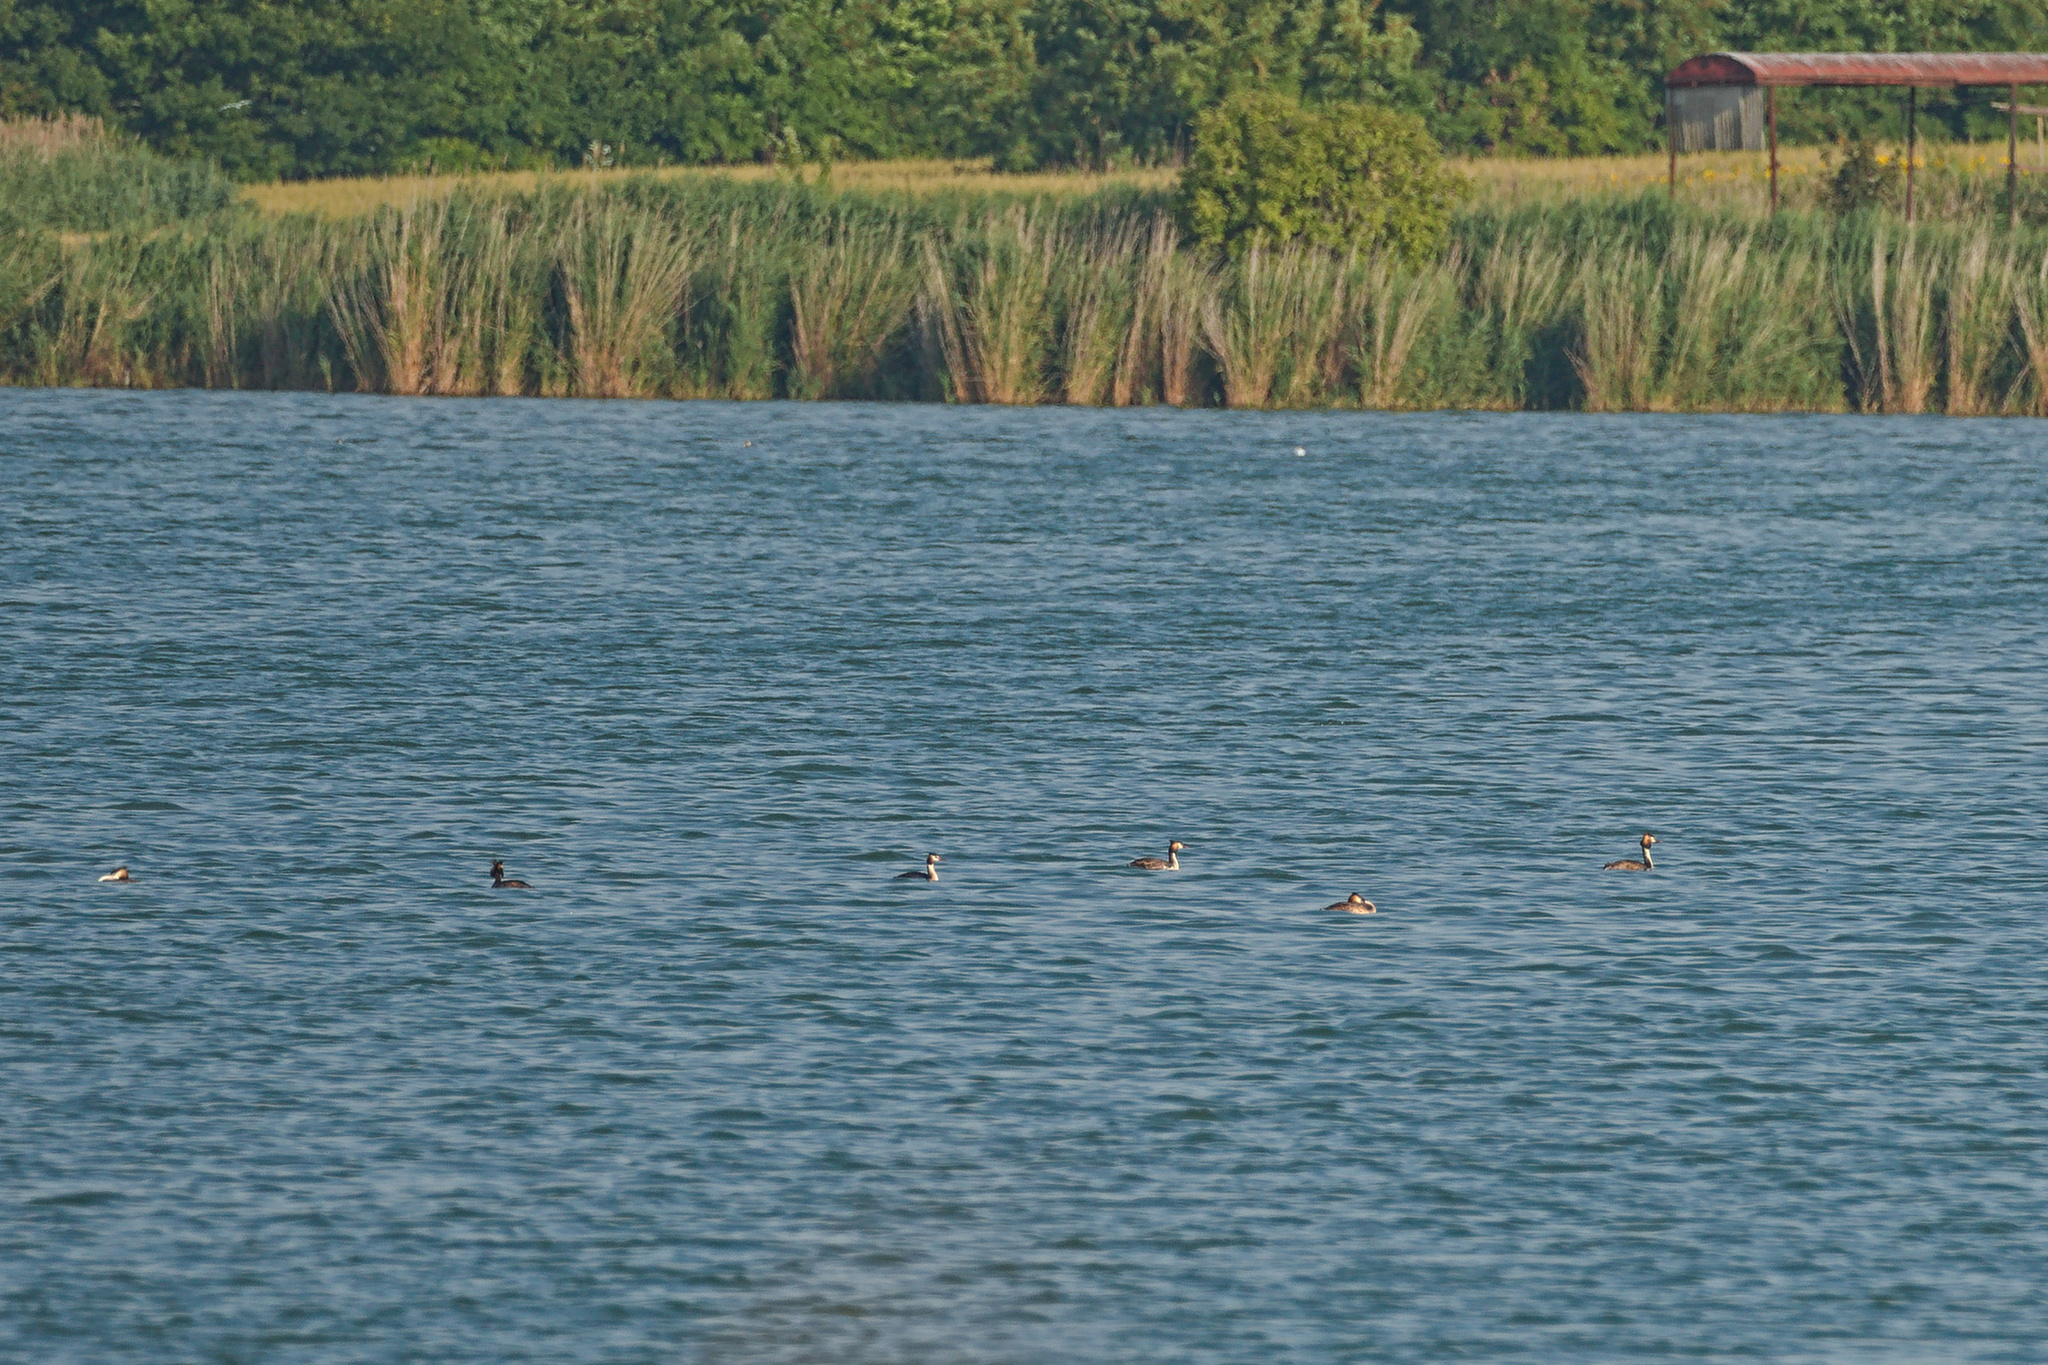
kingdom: Animalia
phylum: Chordata
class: Aves
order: Podicipediformes
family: Podicipedidae
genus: Podiceps
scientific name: Podiceps cristatus
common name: Great crested grebe
